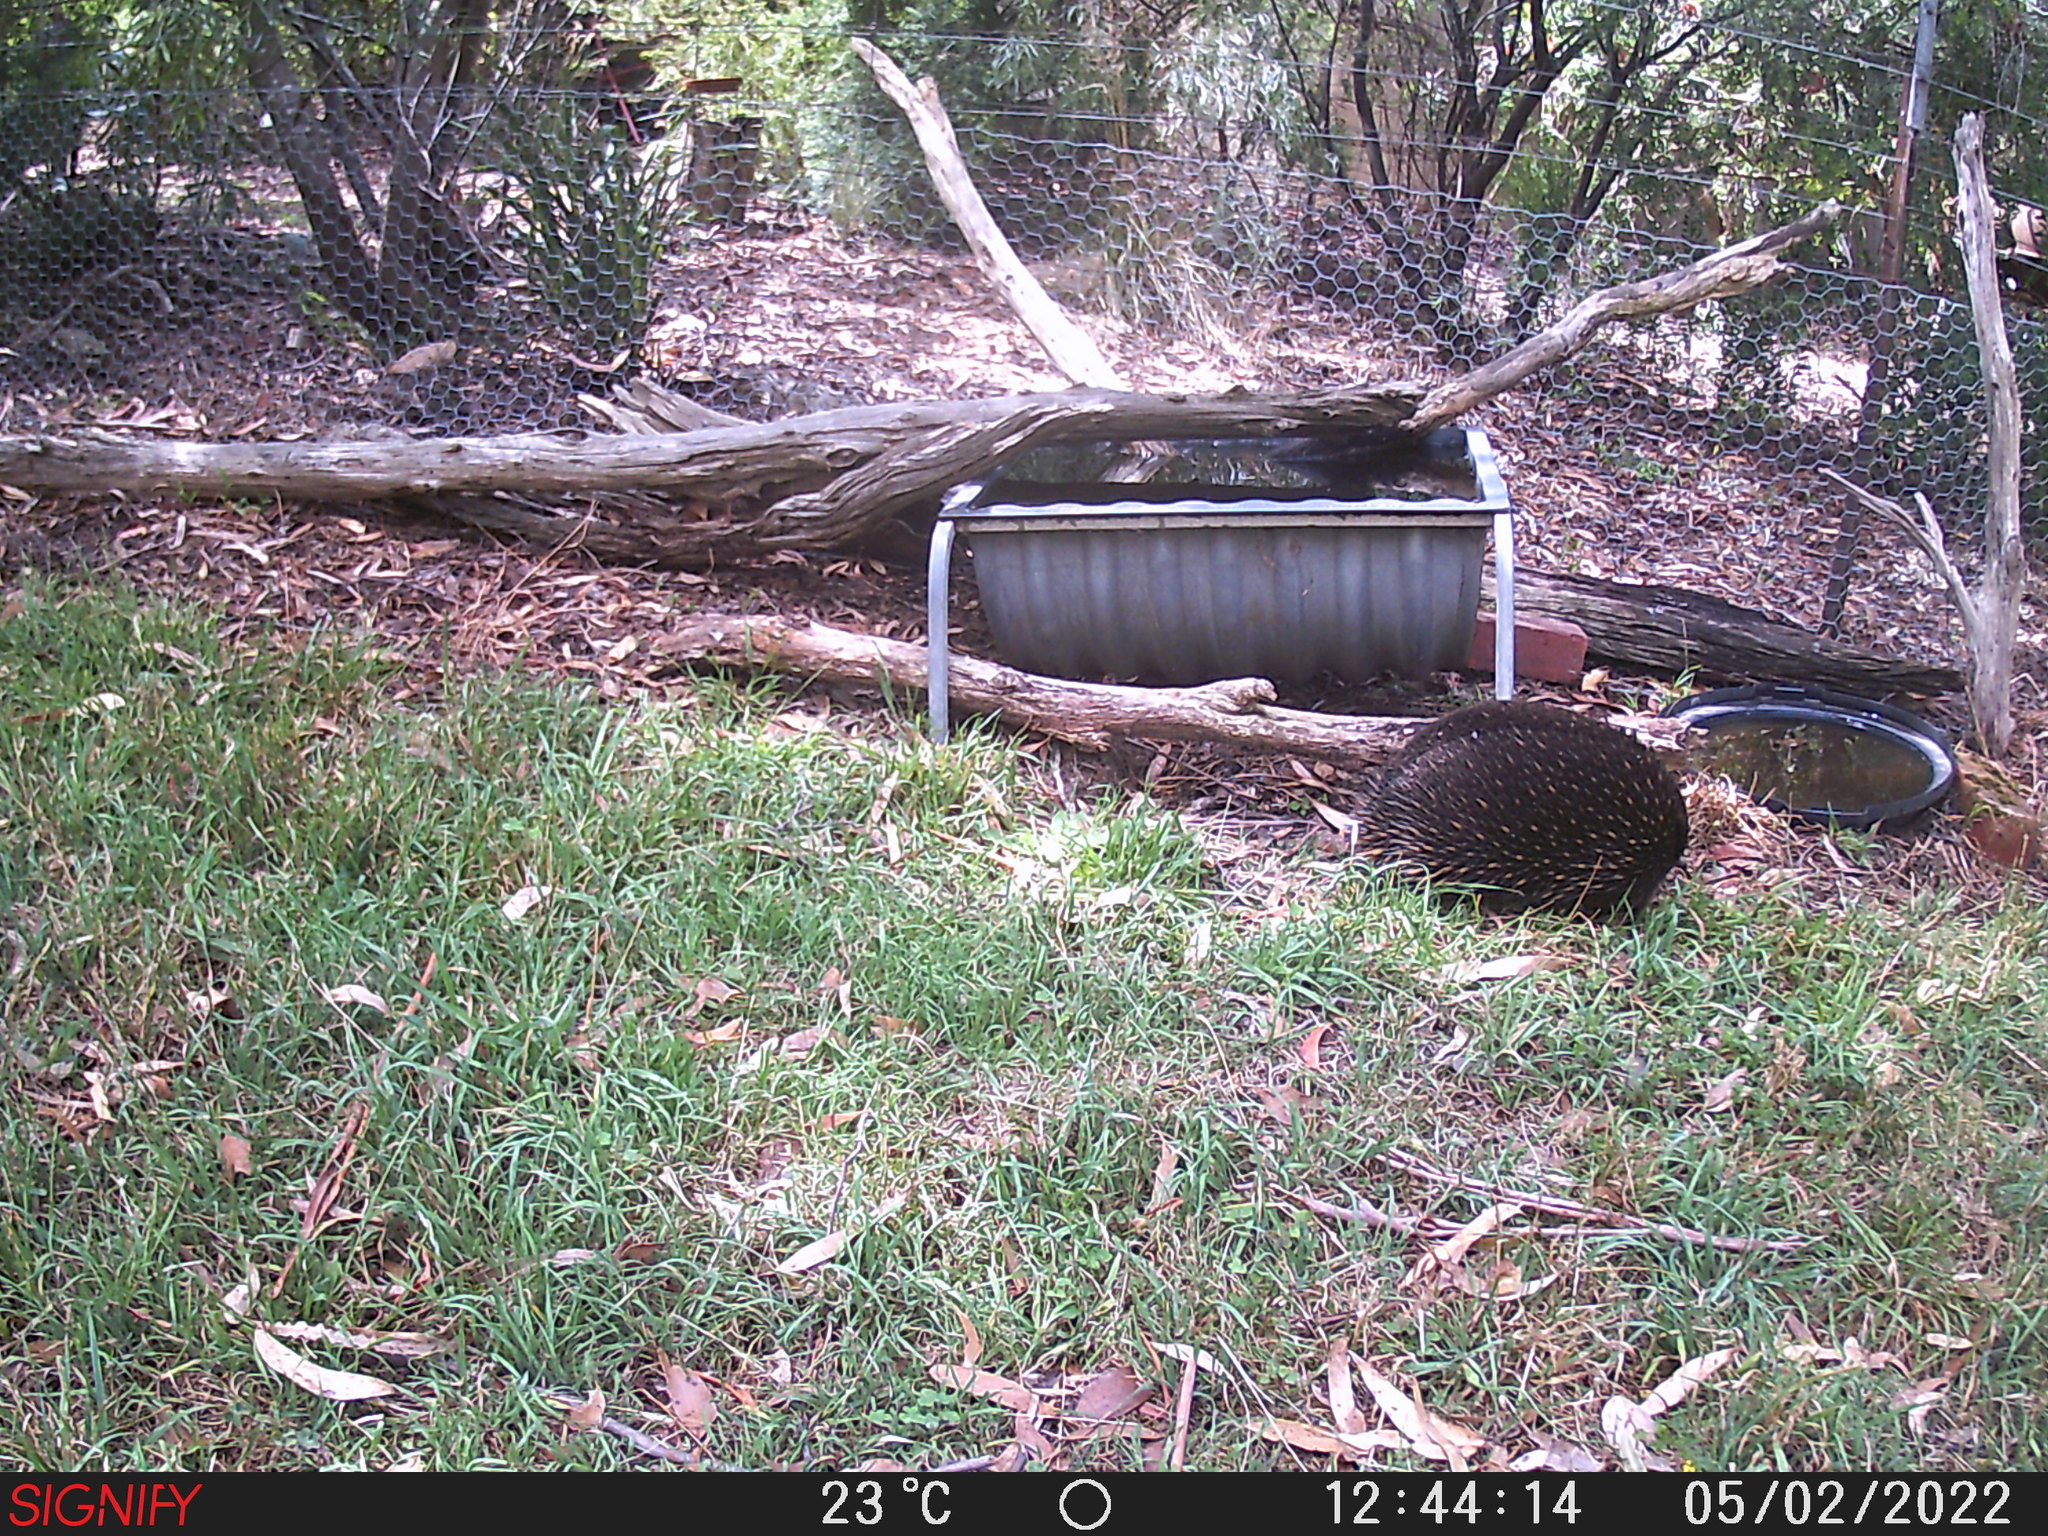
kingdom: Animalia
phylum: Chordata
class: Mammalia
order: Monotremata
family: Tachyglossidae
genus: Tachyglossus
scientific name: Tachyglossus aculeatus
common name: Short-beaked echidna
